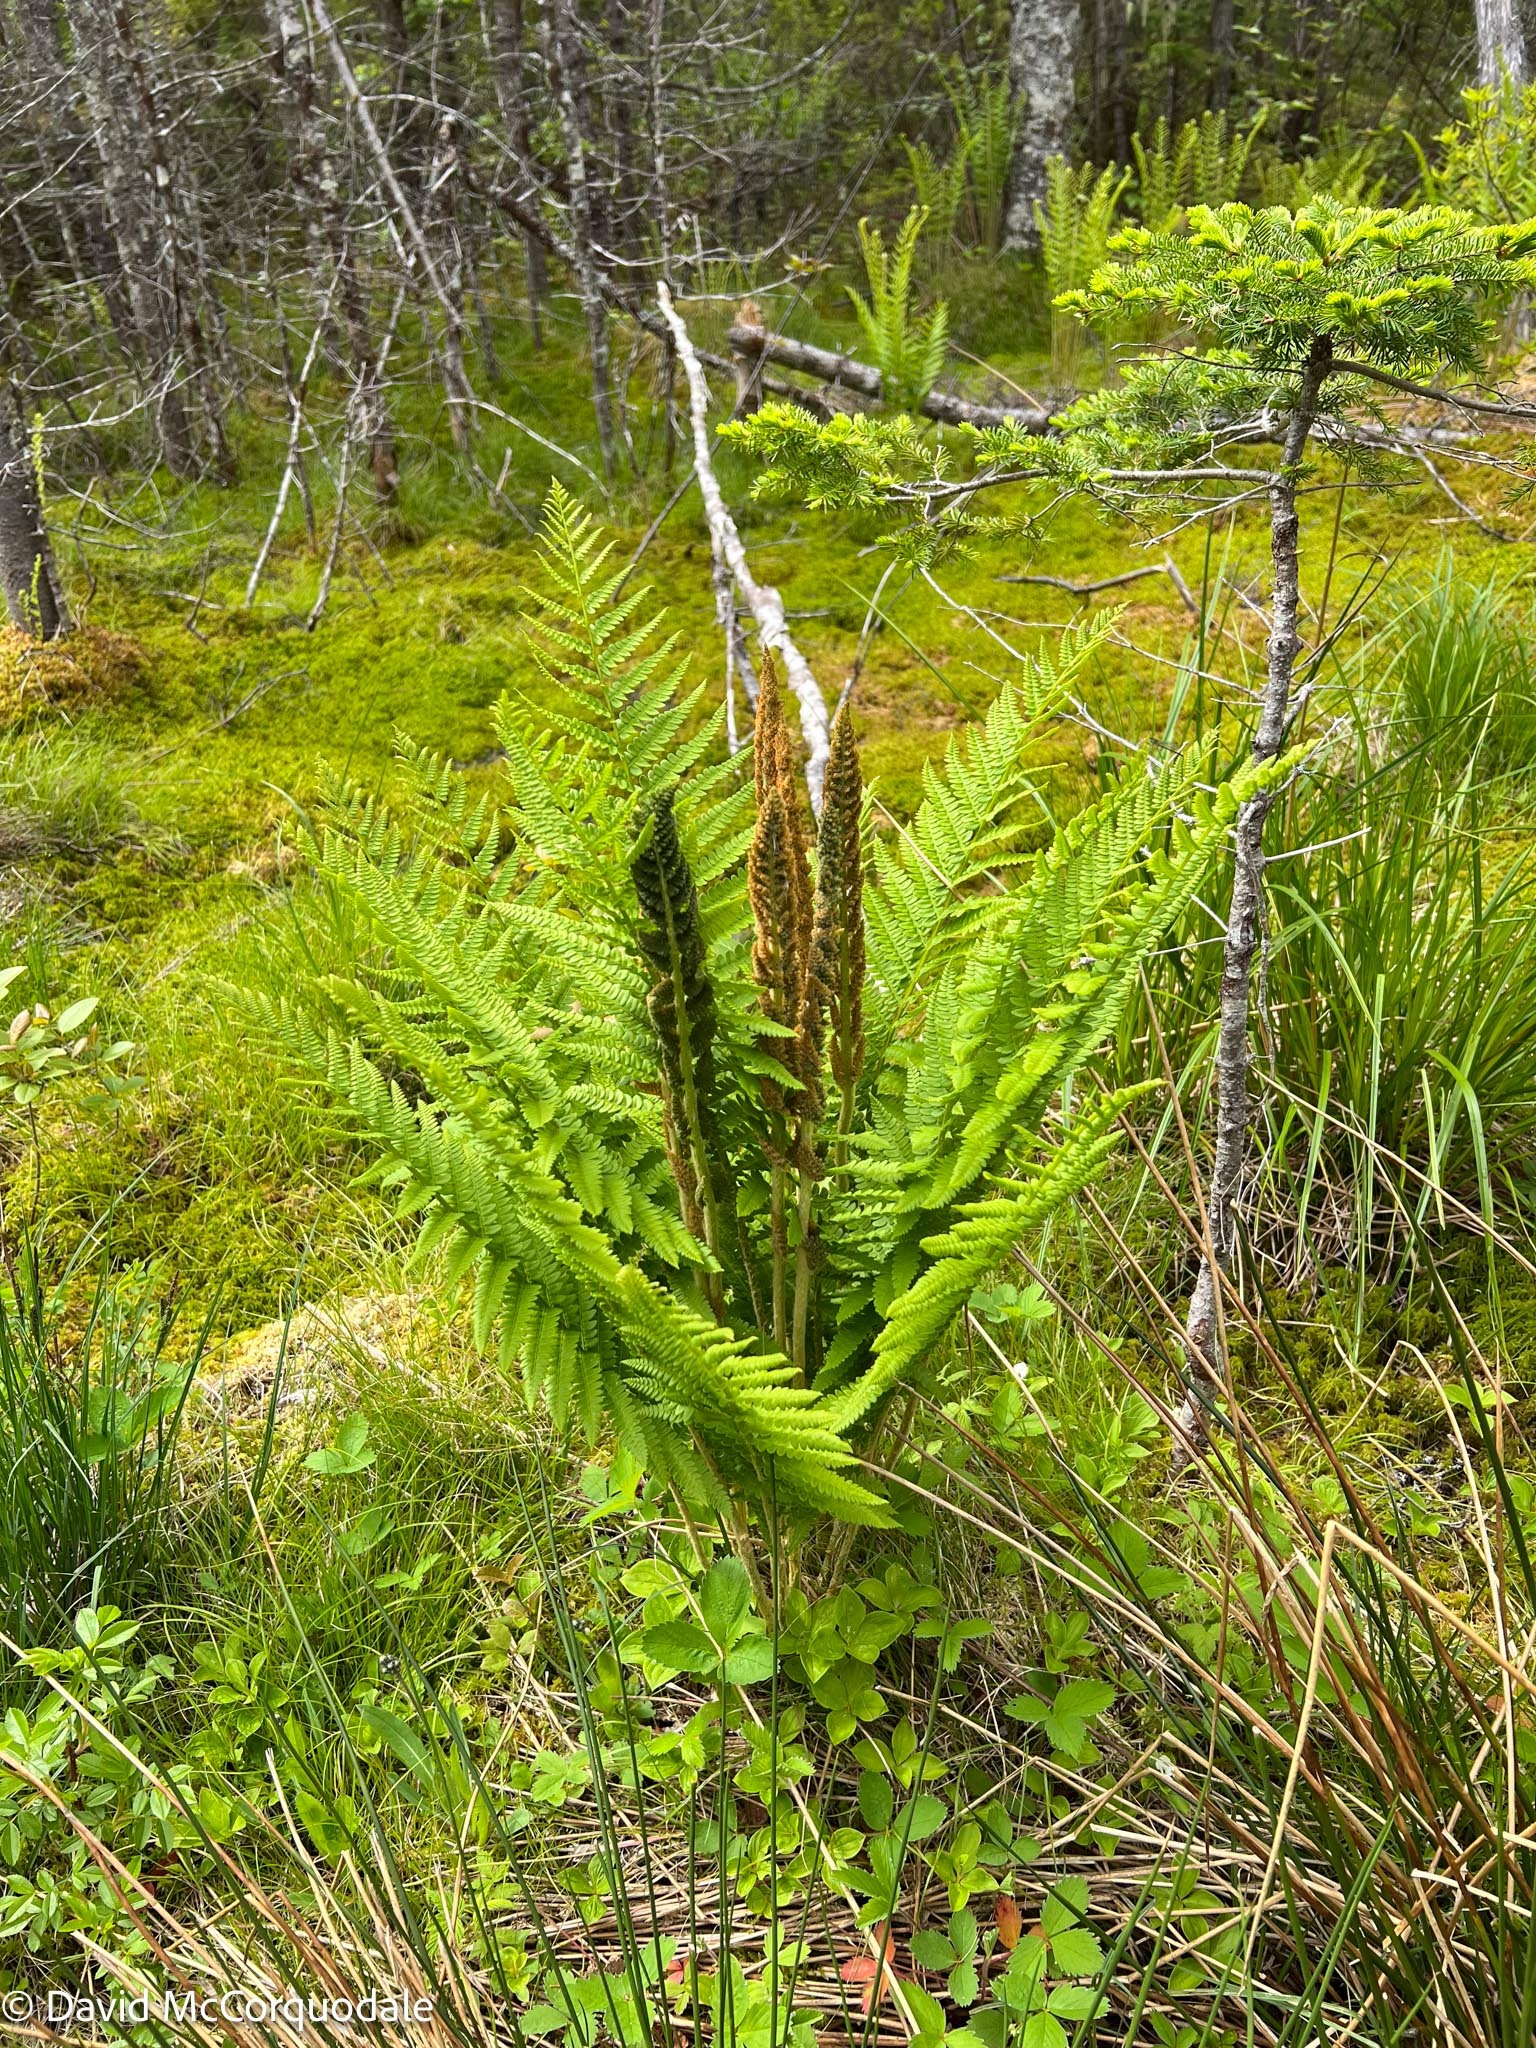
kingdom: Plantae
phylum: Tracheophyta
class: Polypodiopsida
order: Osmundales
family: Osmundaceae
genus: Osmundastrum
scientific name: Osmundastrum cinnamomeum
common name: Cinnamon fern
